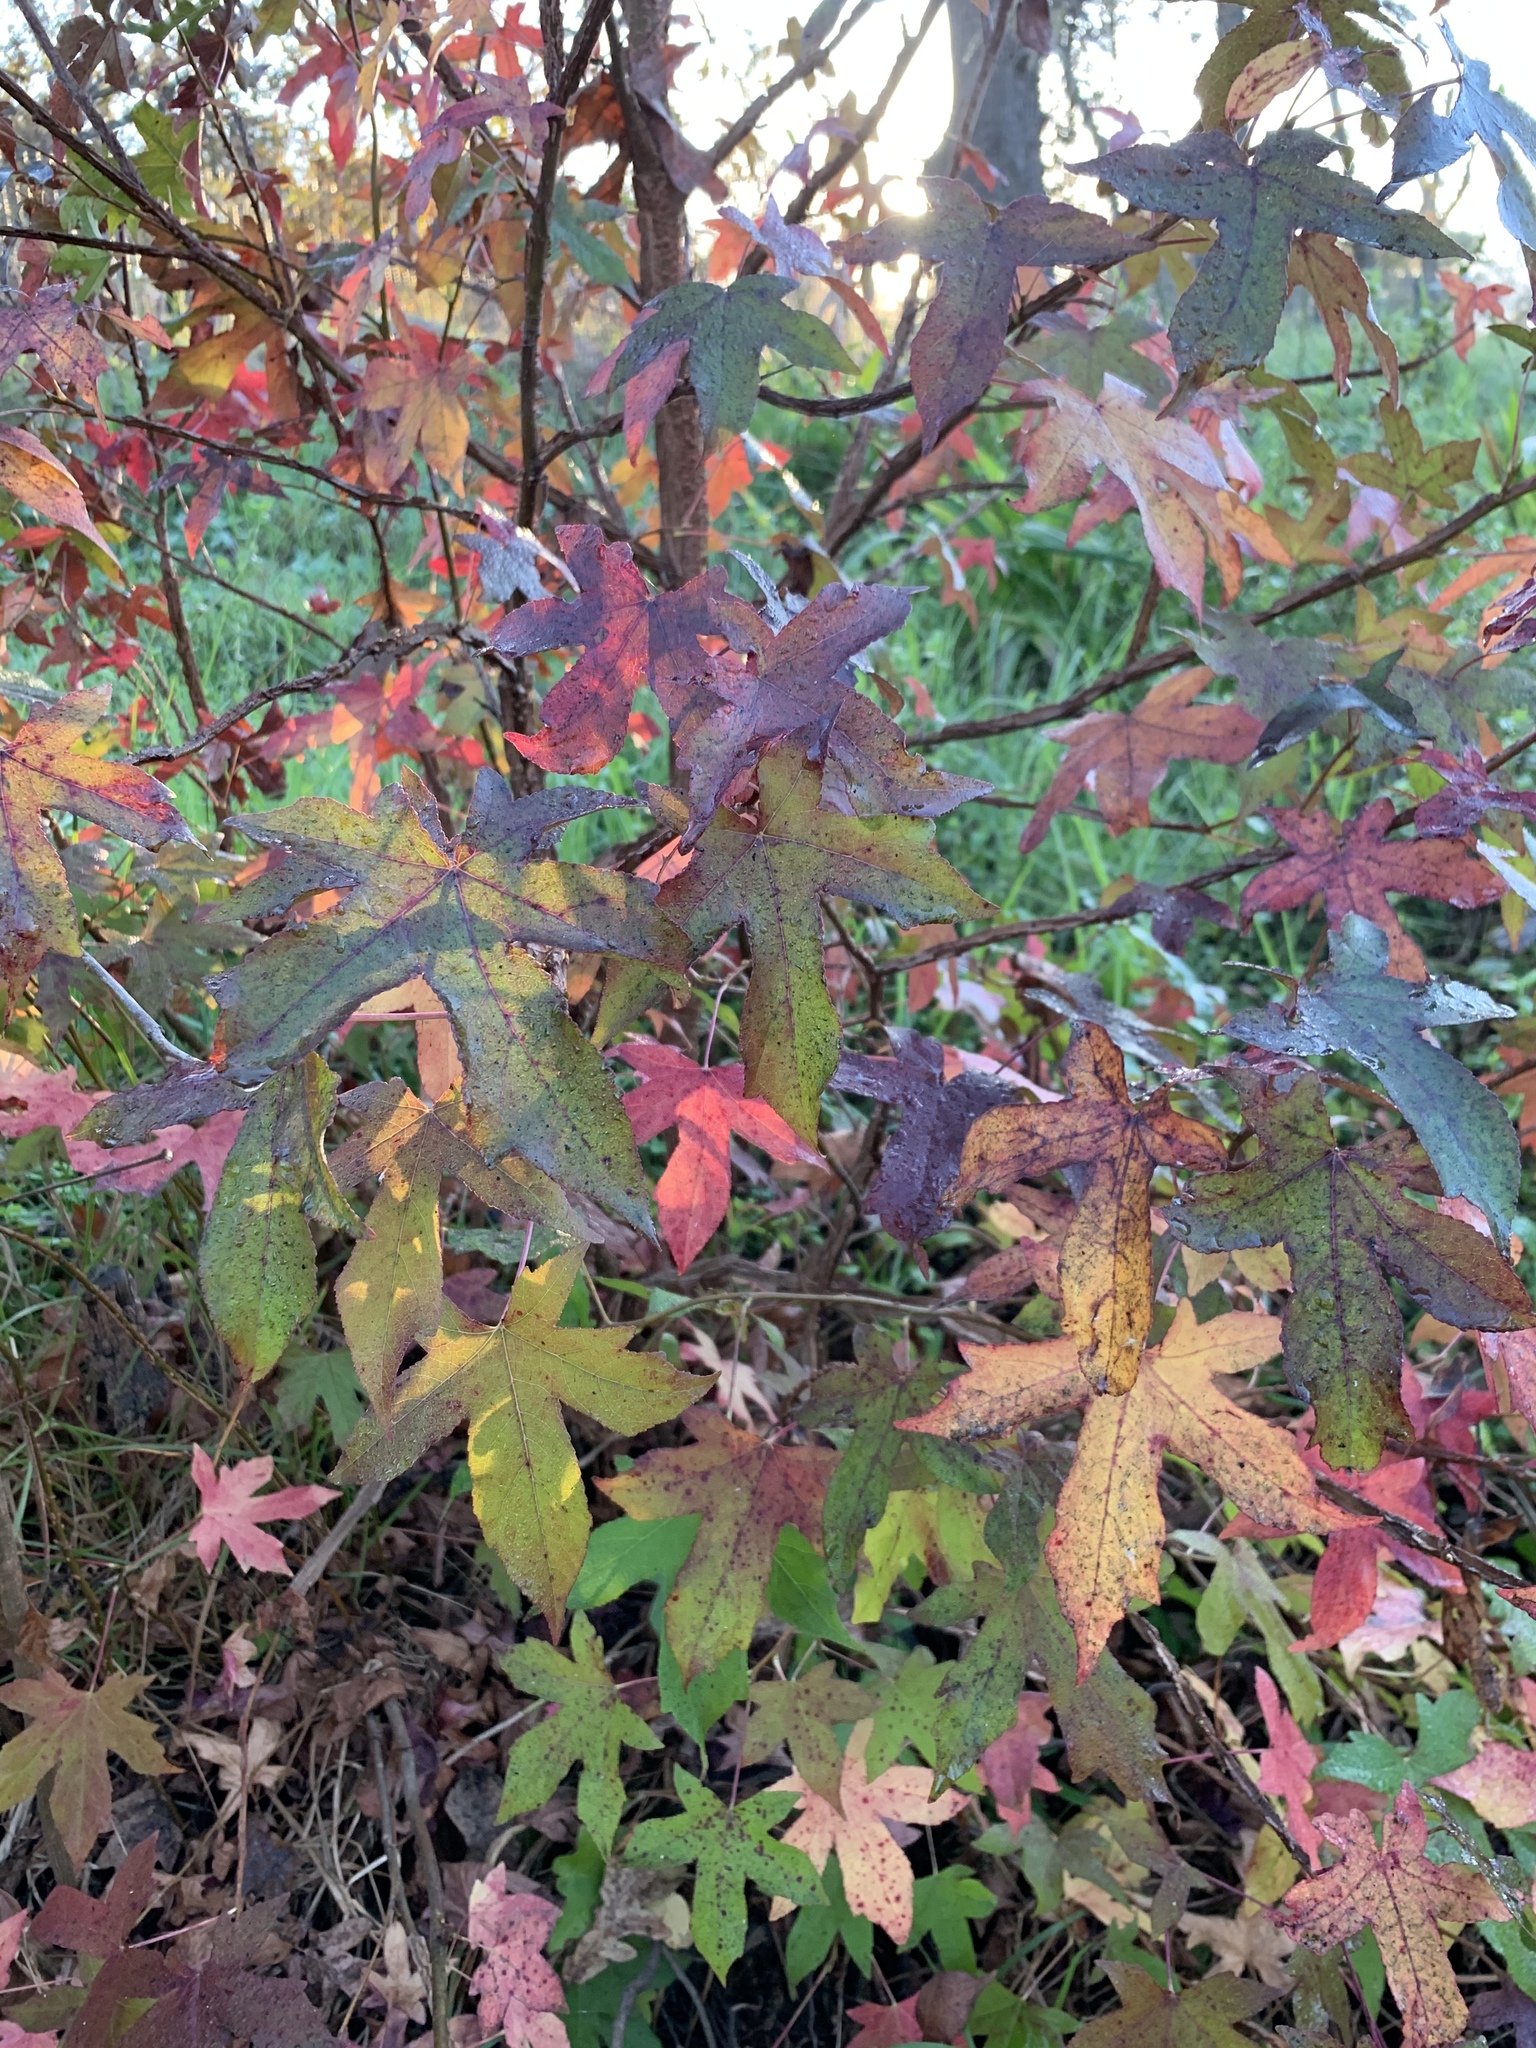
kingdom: Plantae
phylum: Tracheophyta
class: Magnoliopsida
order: Saxifragales
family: Altingiaceae
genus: Liquidambar
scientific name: Liquidambar styraciflua
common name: Sweet gum
